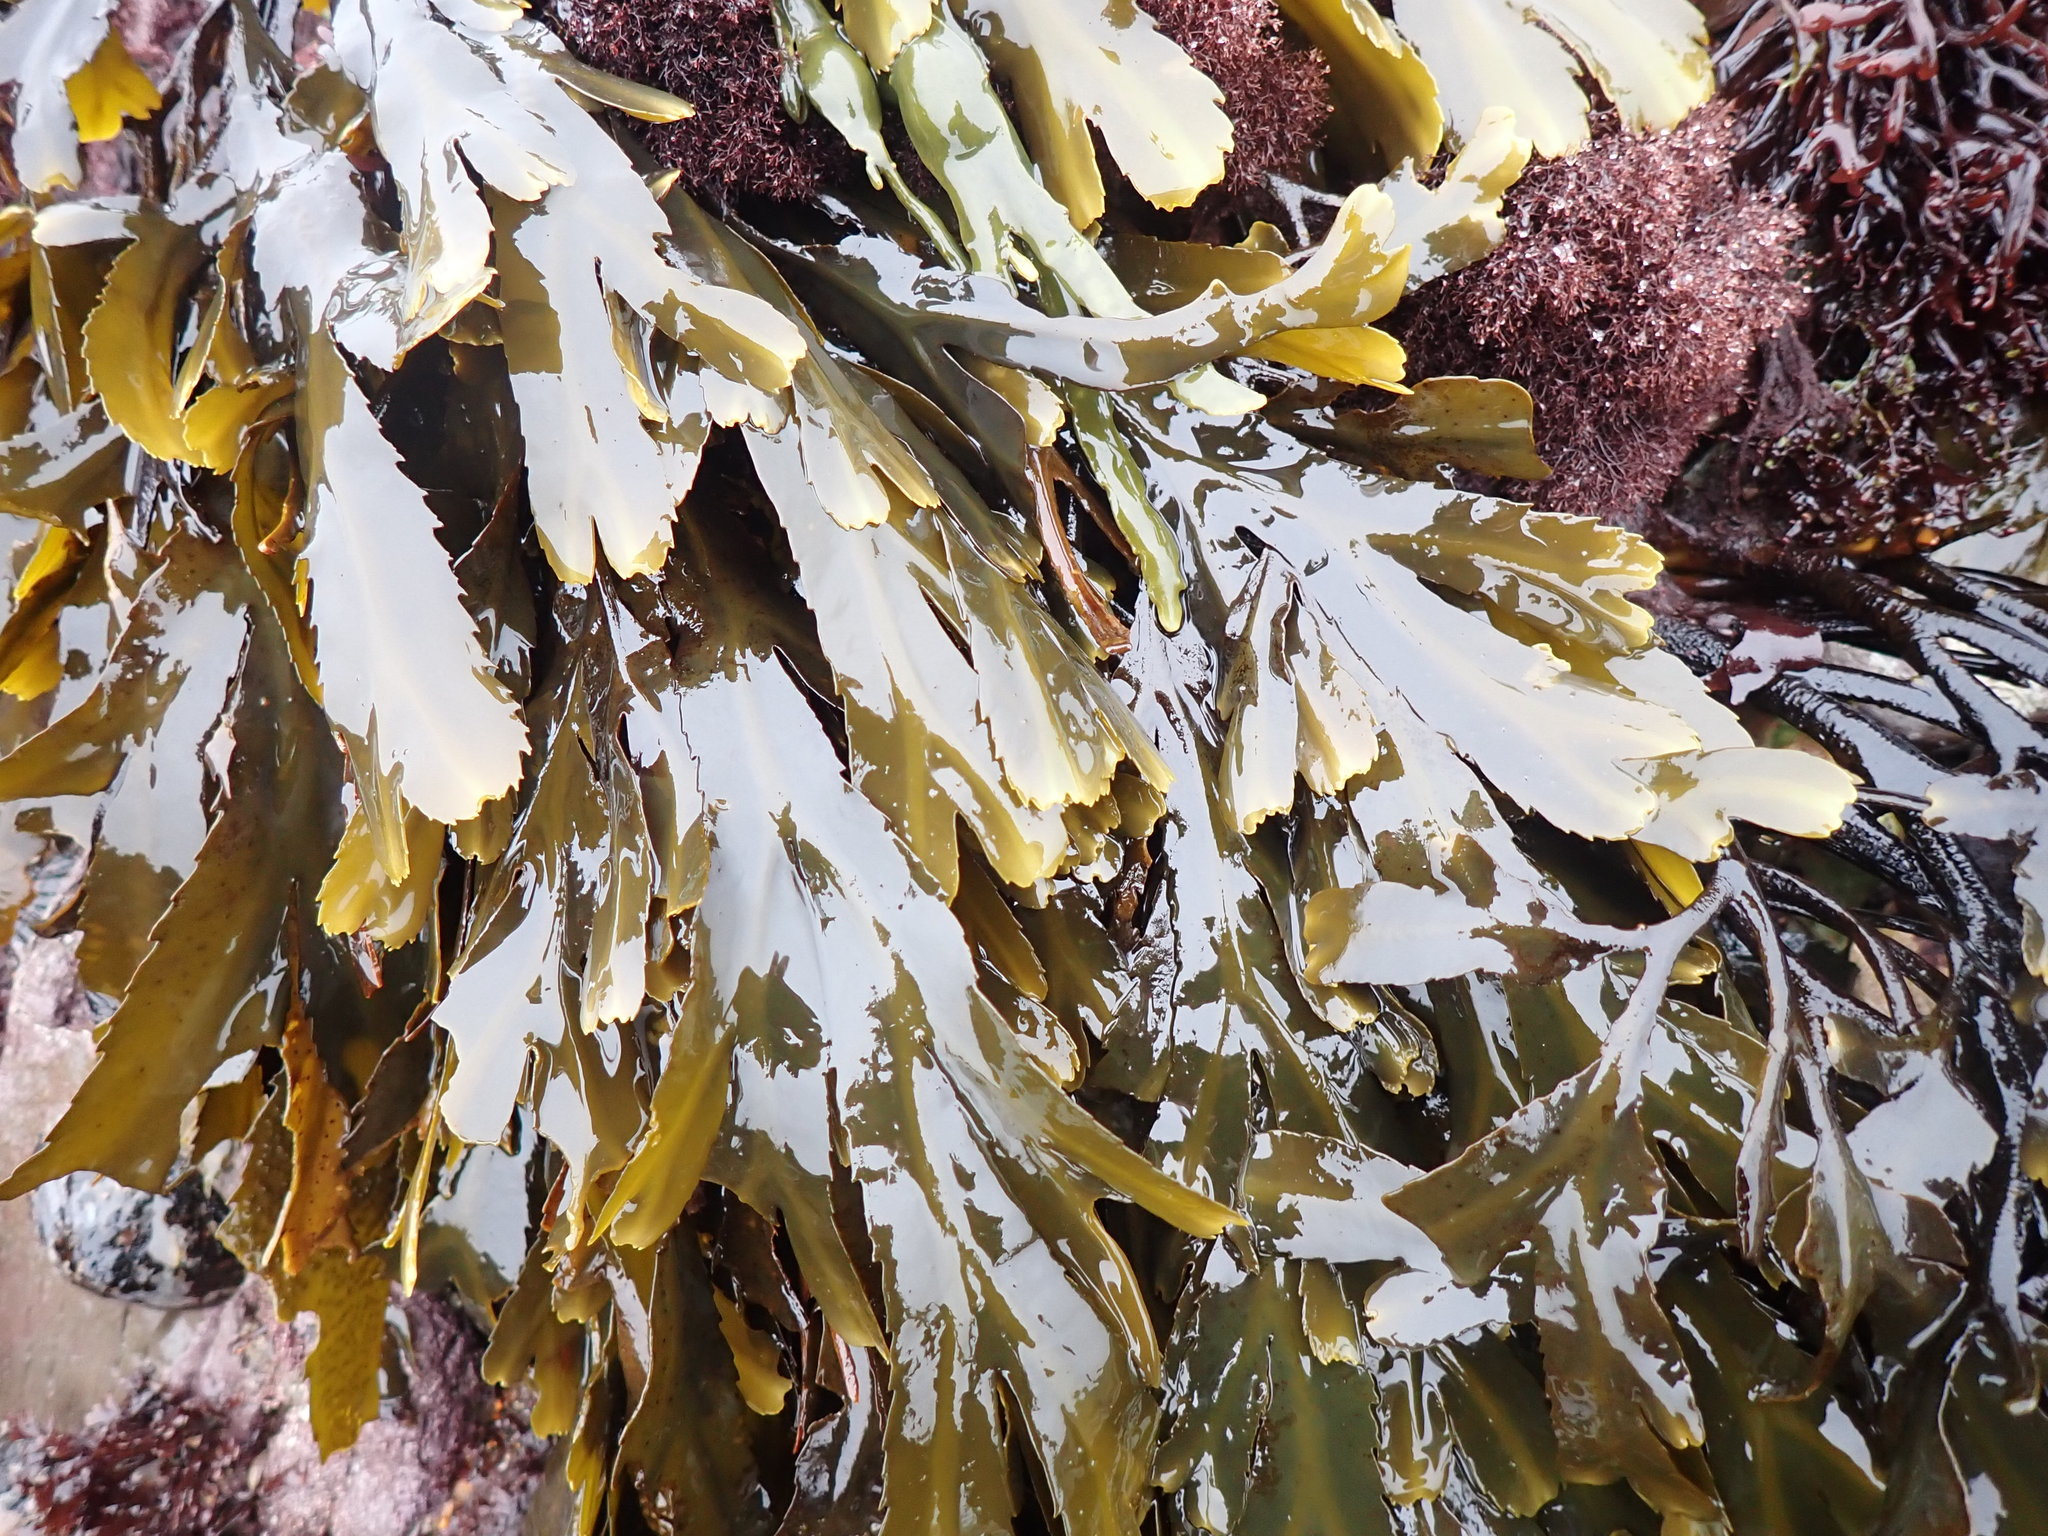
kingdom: Chromista
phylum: Ochrophyta
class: Phaeophyceae
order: Fucales
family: Fucaceae
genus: Fucus
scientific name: Fucus serratus
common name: Toothed wrack
